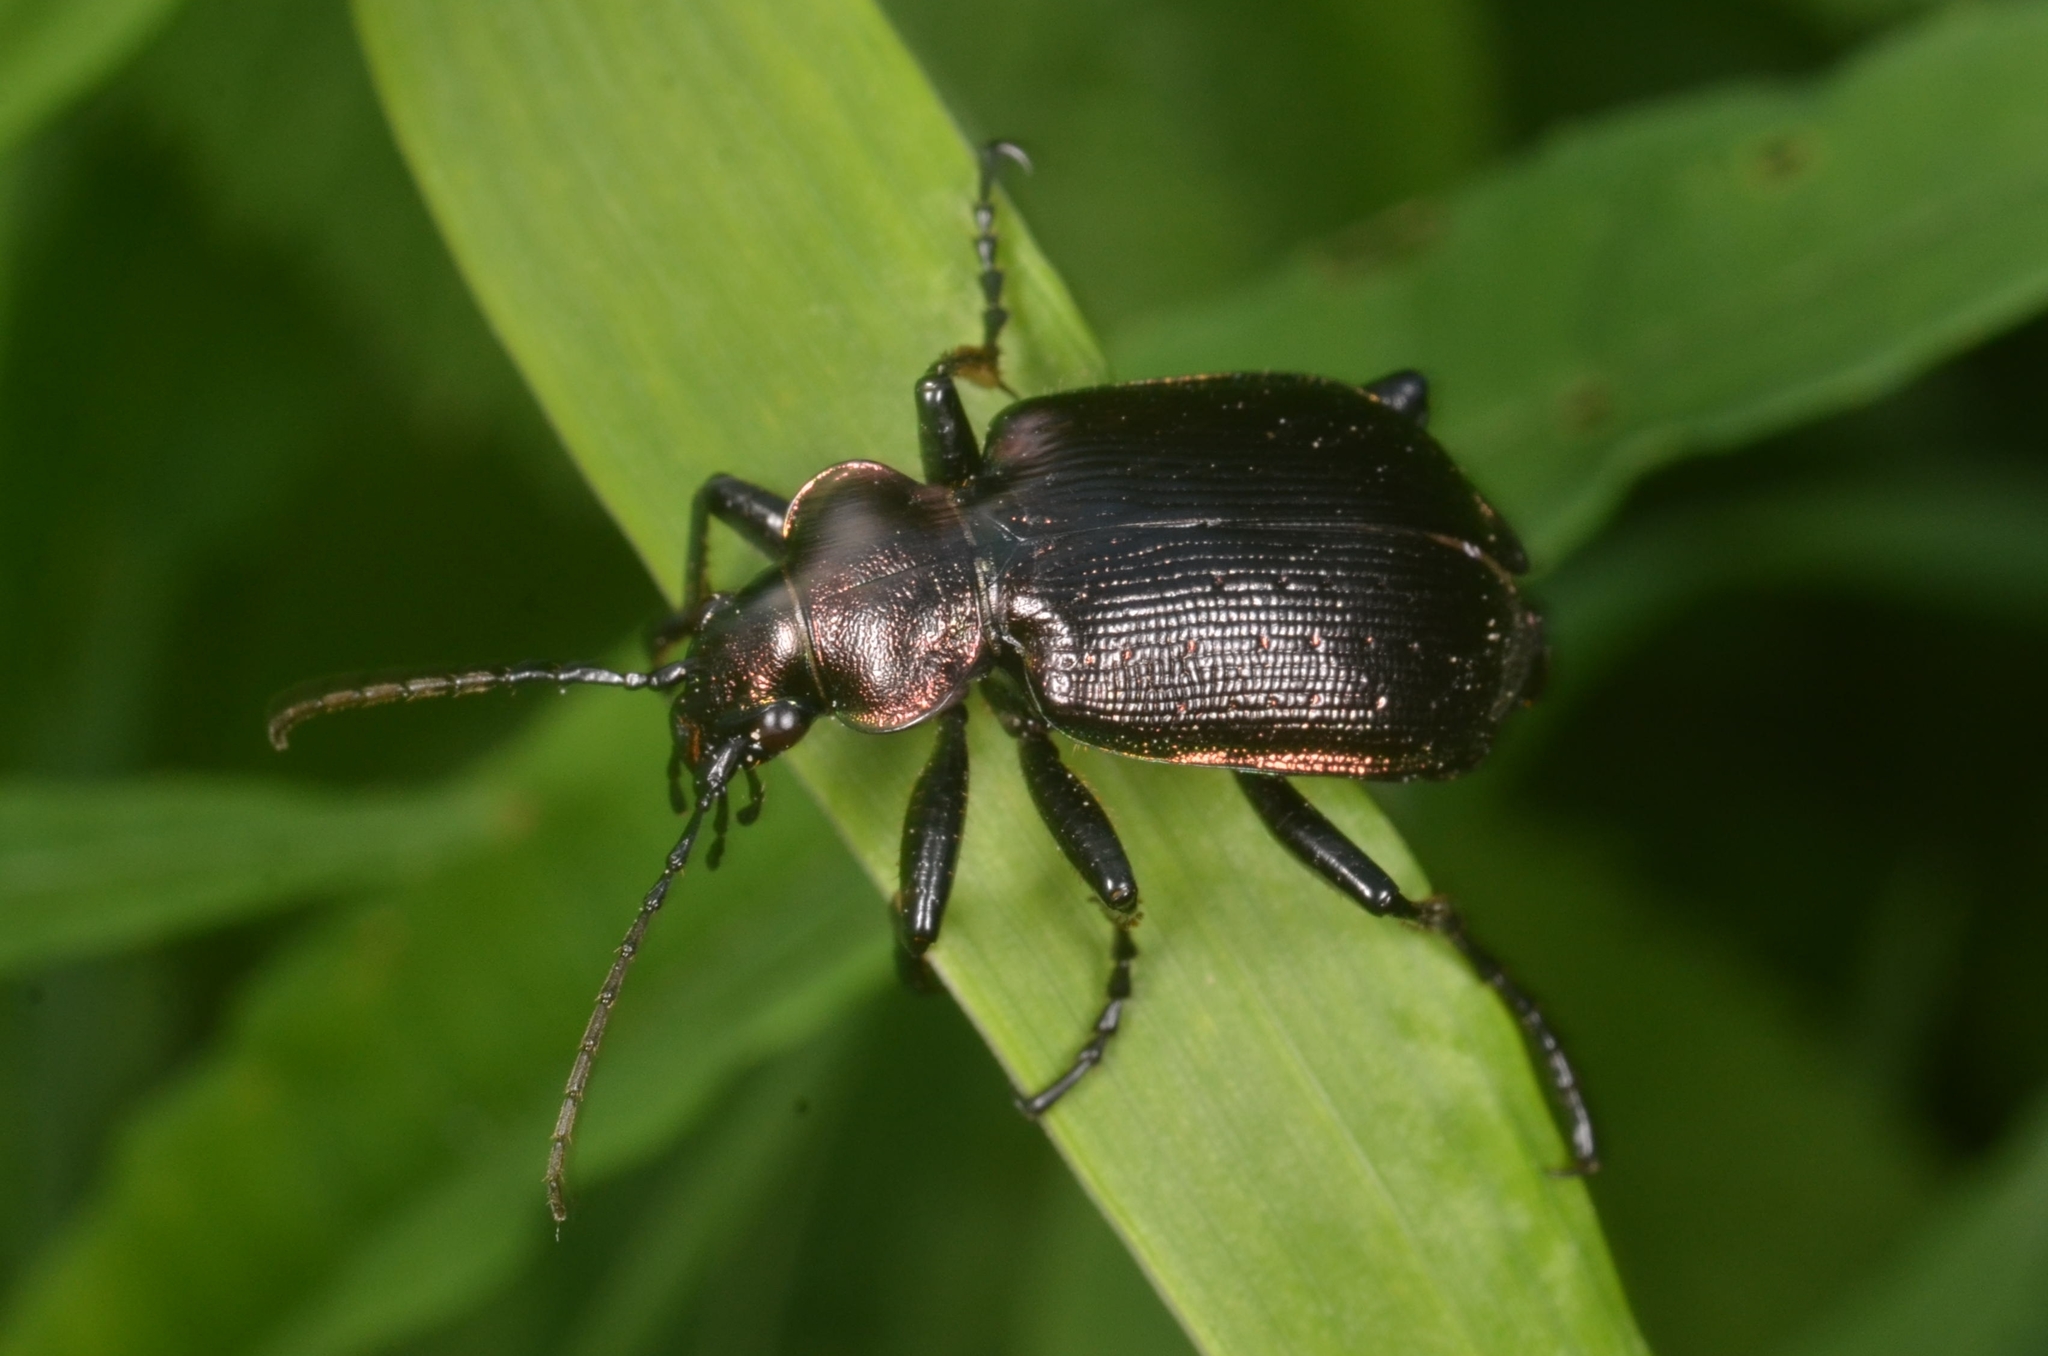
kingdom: Animalia
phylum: Arthropoda
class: Insecta
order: Coleoptera
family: Carabidae
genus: Calosoma
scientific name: Calosoma inquisitor
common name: Caterpillar-hunter
